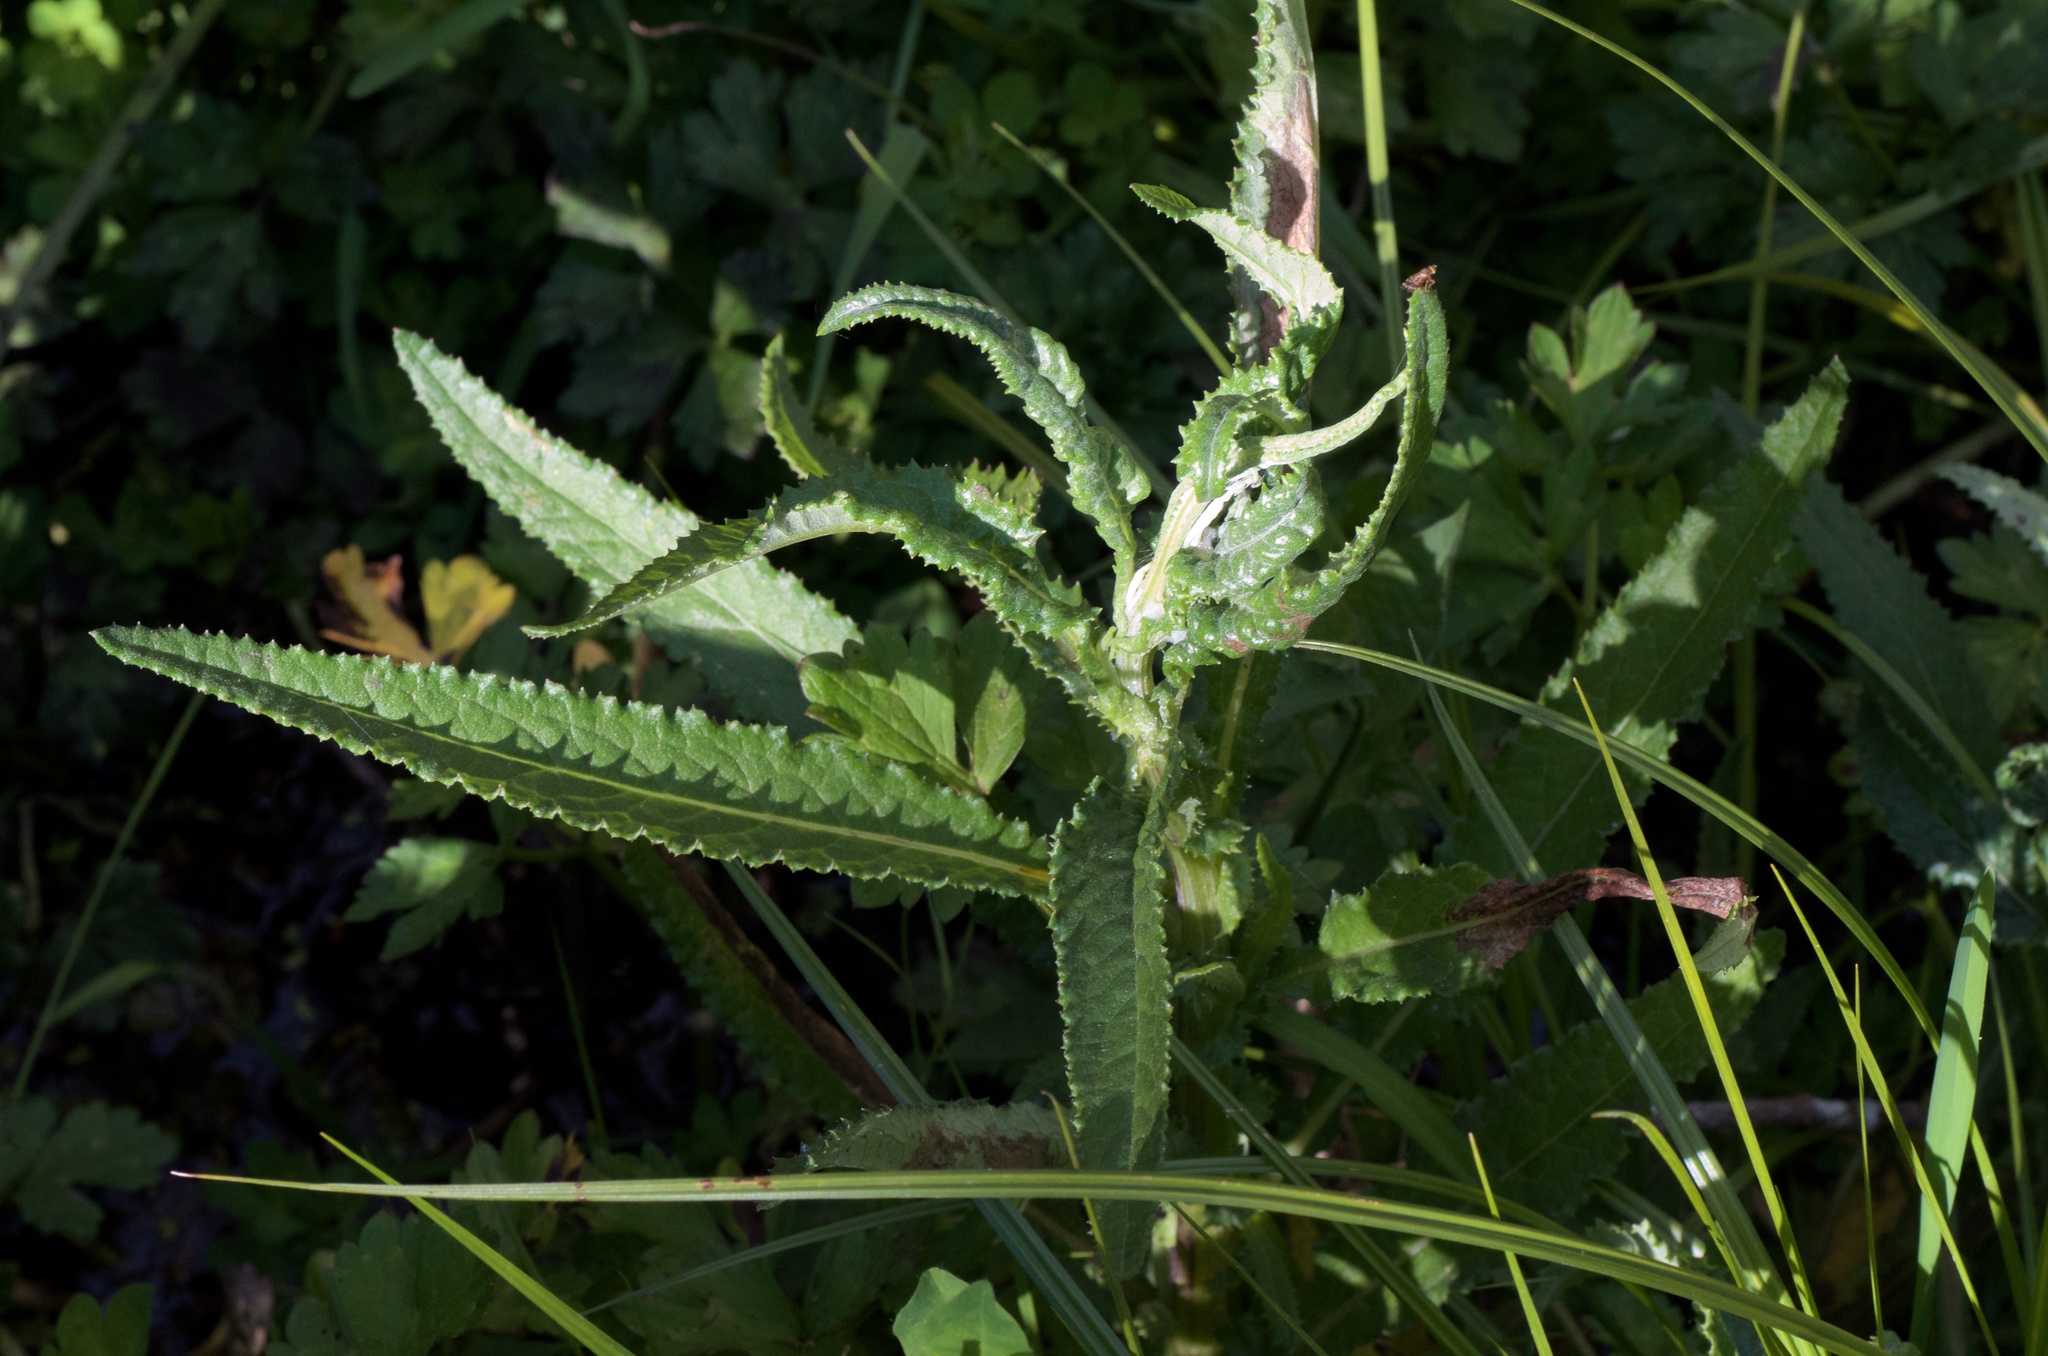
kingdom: Animalia
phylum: Arthropoda
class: Insecta
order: Hymenoptera
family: Tenthredinidae
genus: Pontania
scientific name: Pontania proxima
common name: Common sawfly
